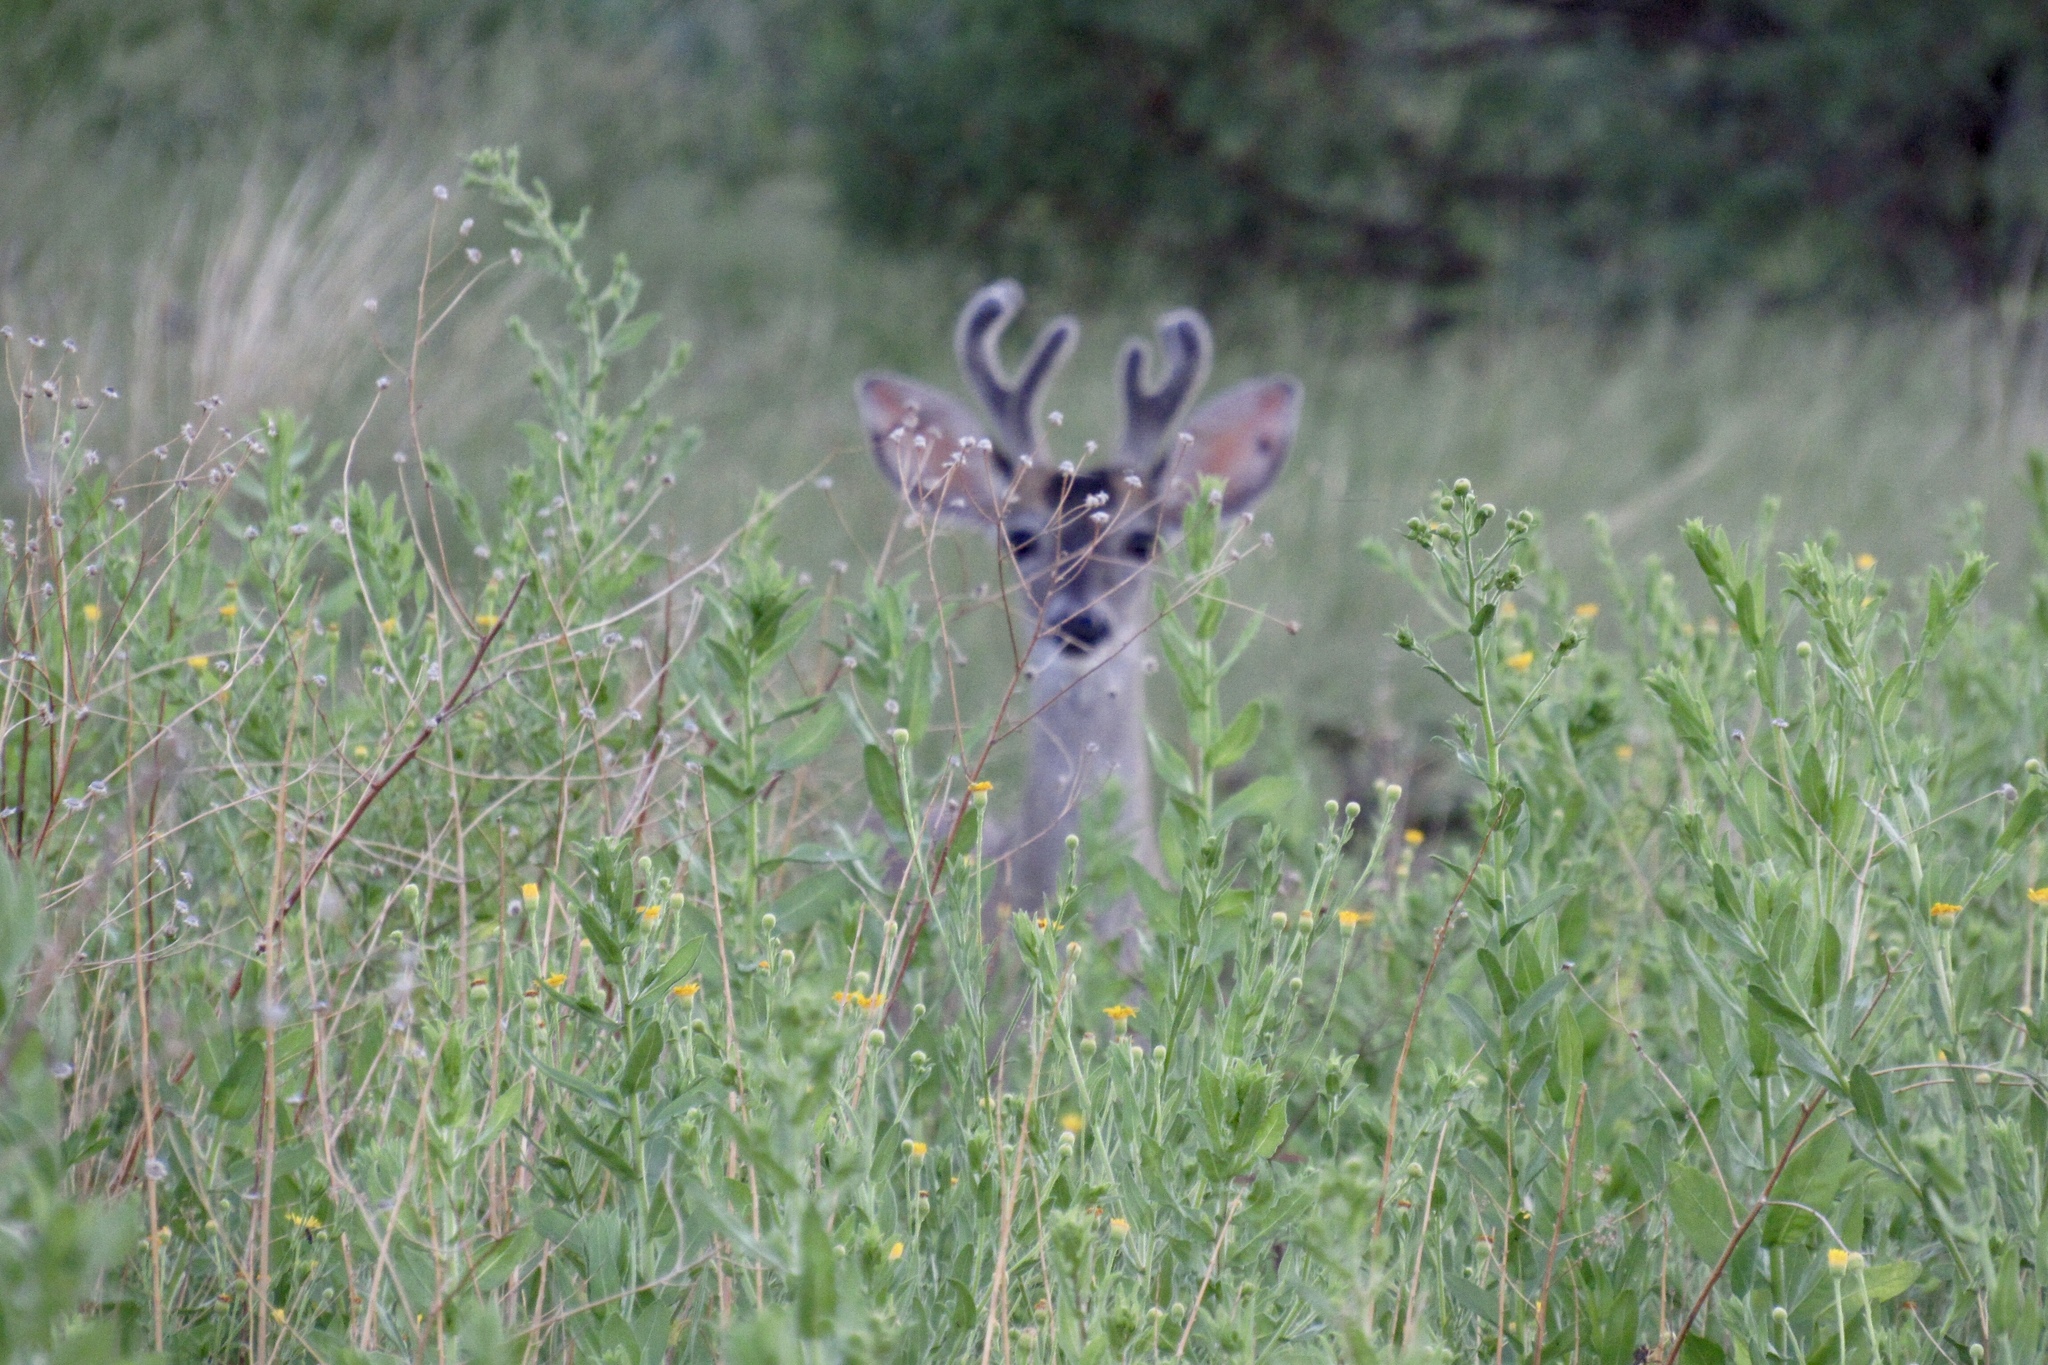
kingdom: Animalia
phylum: Chordata
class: Mammalia
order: Artiodactyla
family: Cervidae
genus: Odocoileus
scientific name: Odocoileus virginianus
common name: White-tailed deer
